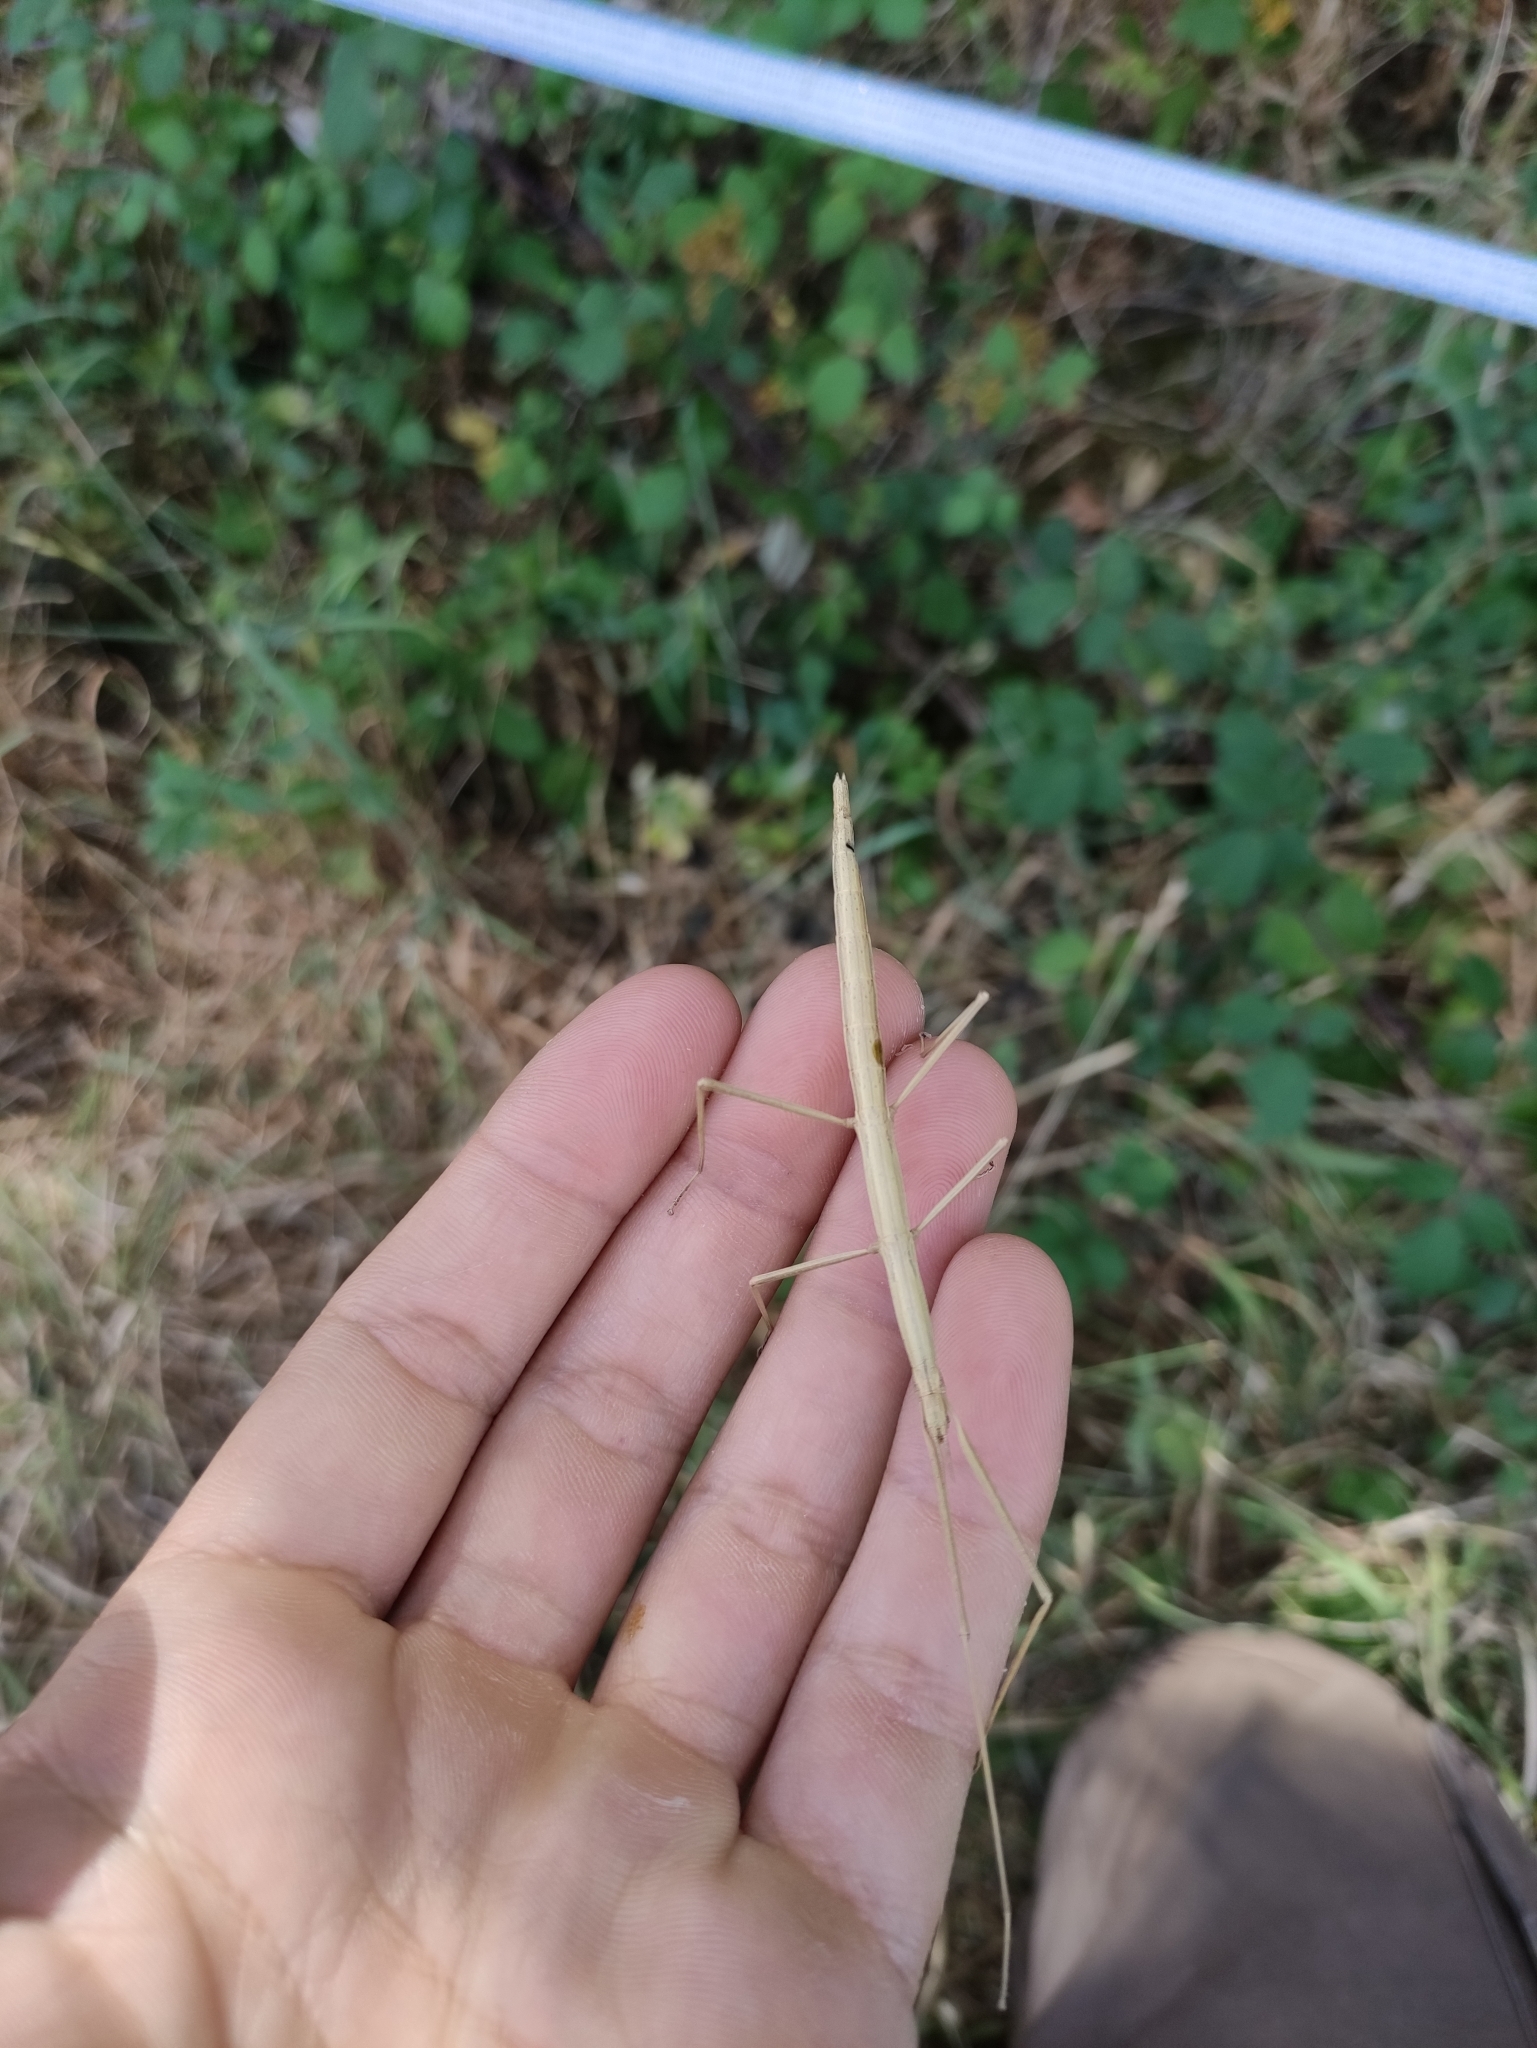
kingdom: Animalia
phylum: Arthropoda
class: Insecta
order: Phasmida
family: Bacillidae
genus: Clonopsis
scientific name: Clonopsis gallica
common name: French stick insect
